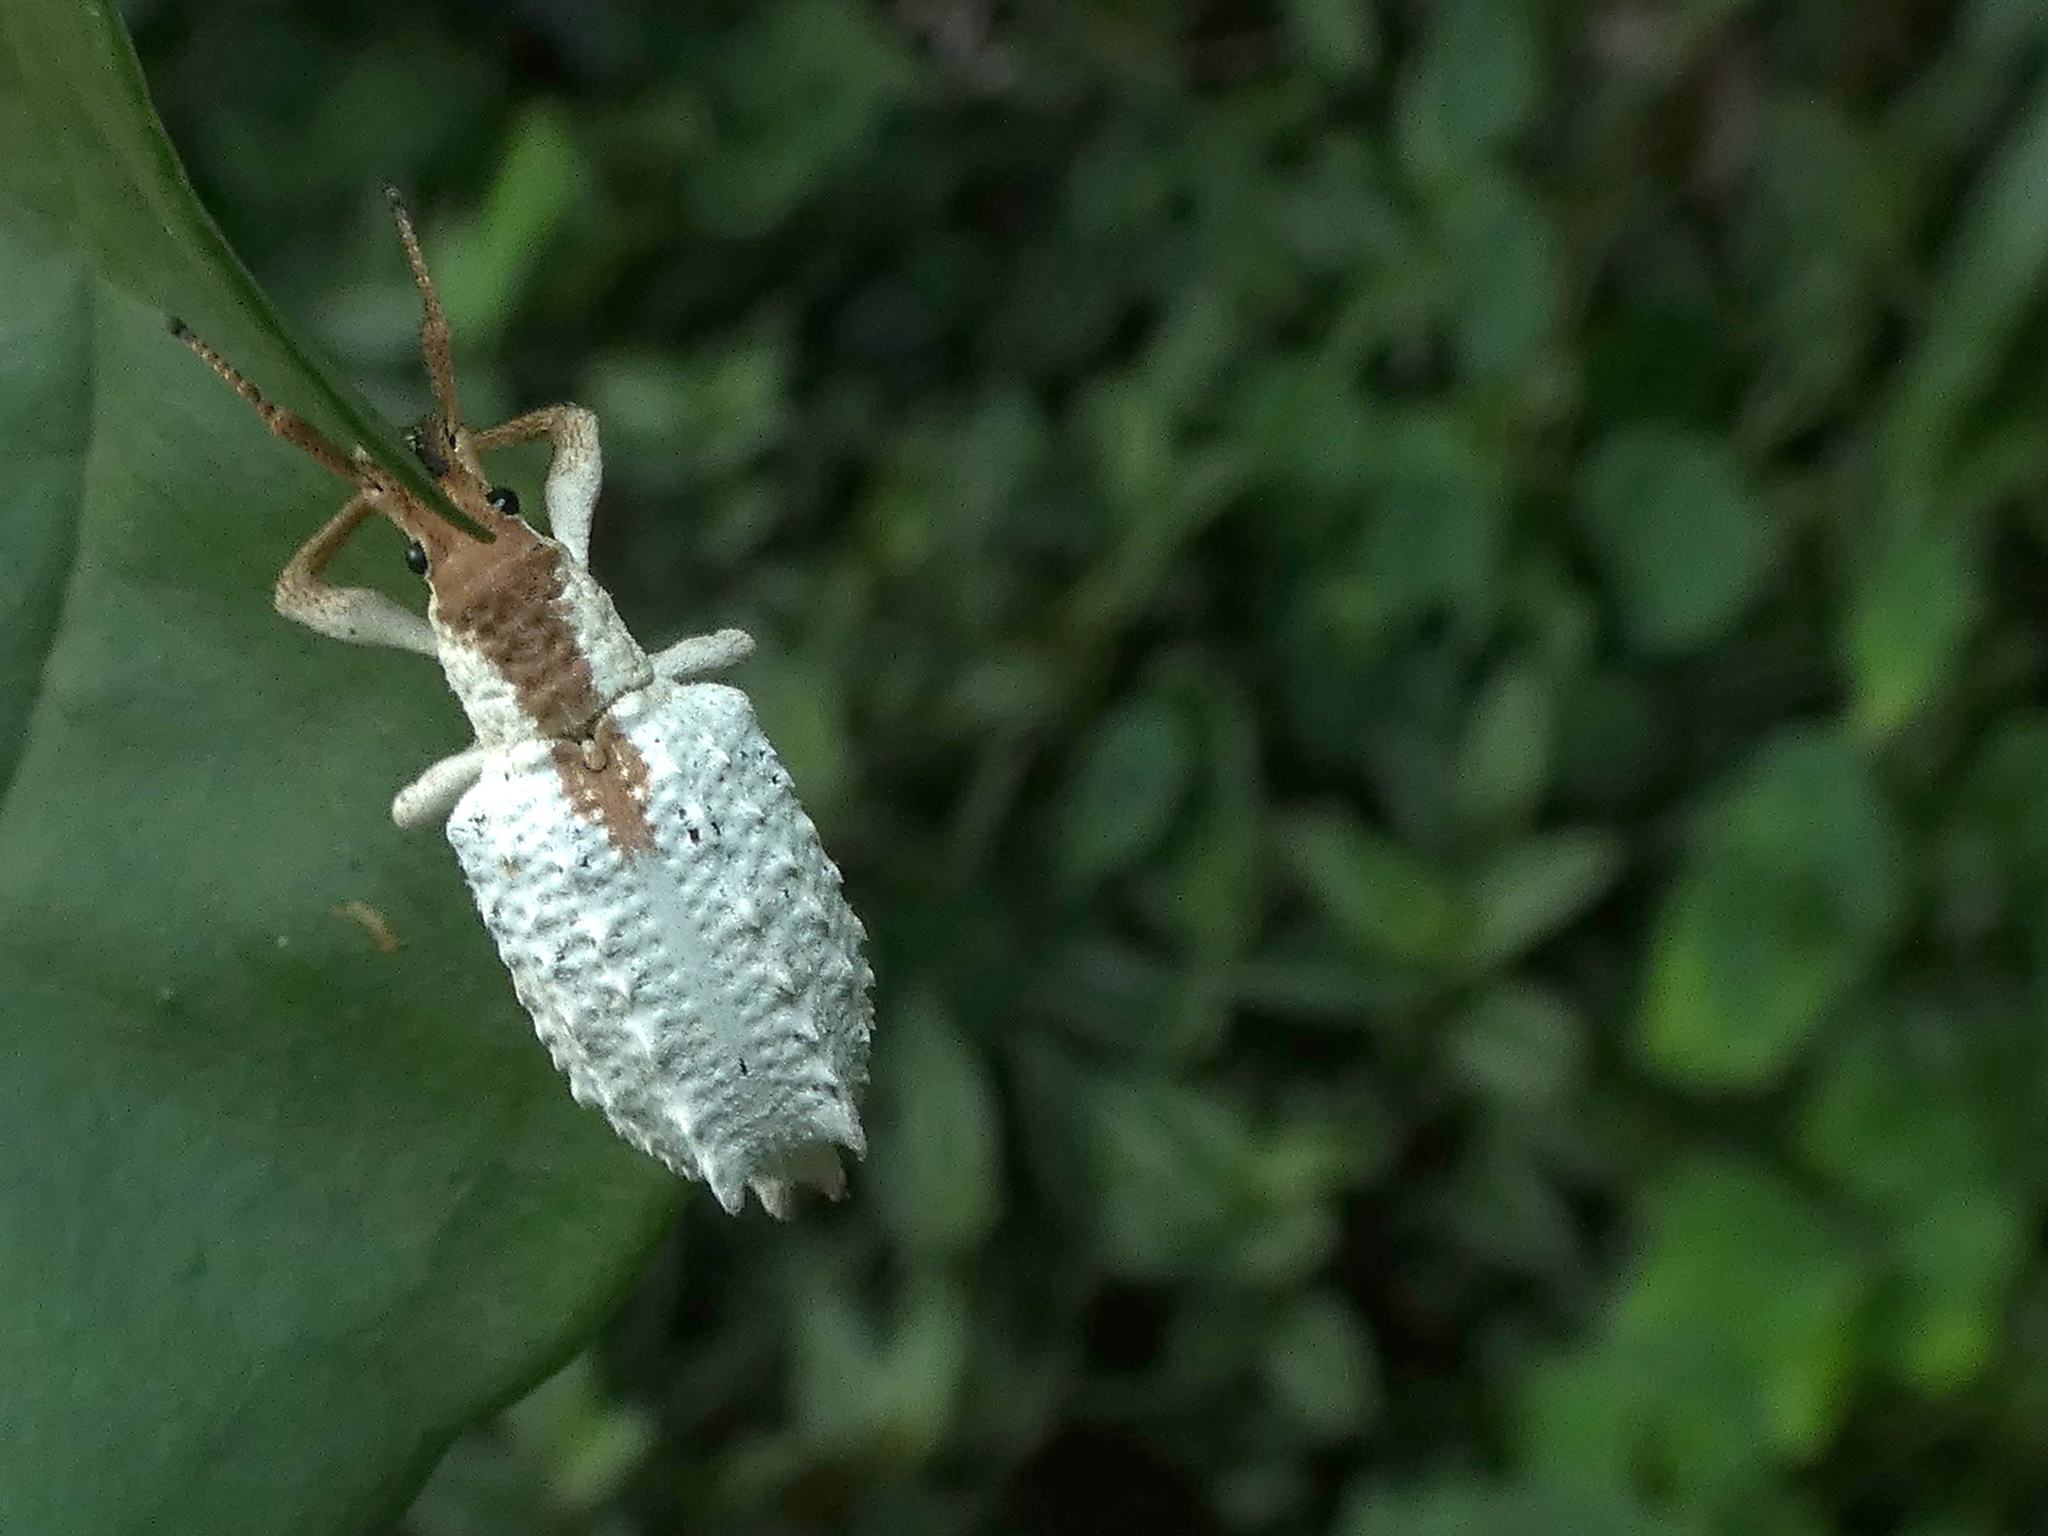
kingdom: Animalia
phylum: Arthropoda
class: Insecta
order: Coleoptera
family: Curculionidae
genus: Compsus
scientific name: Compsus niveus
